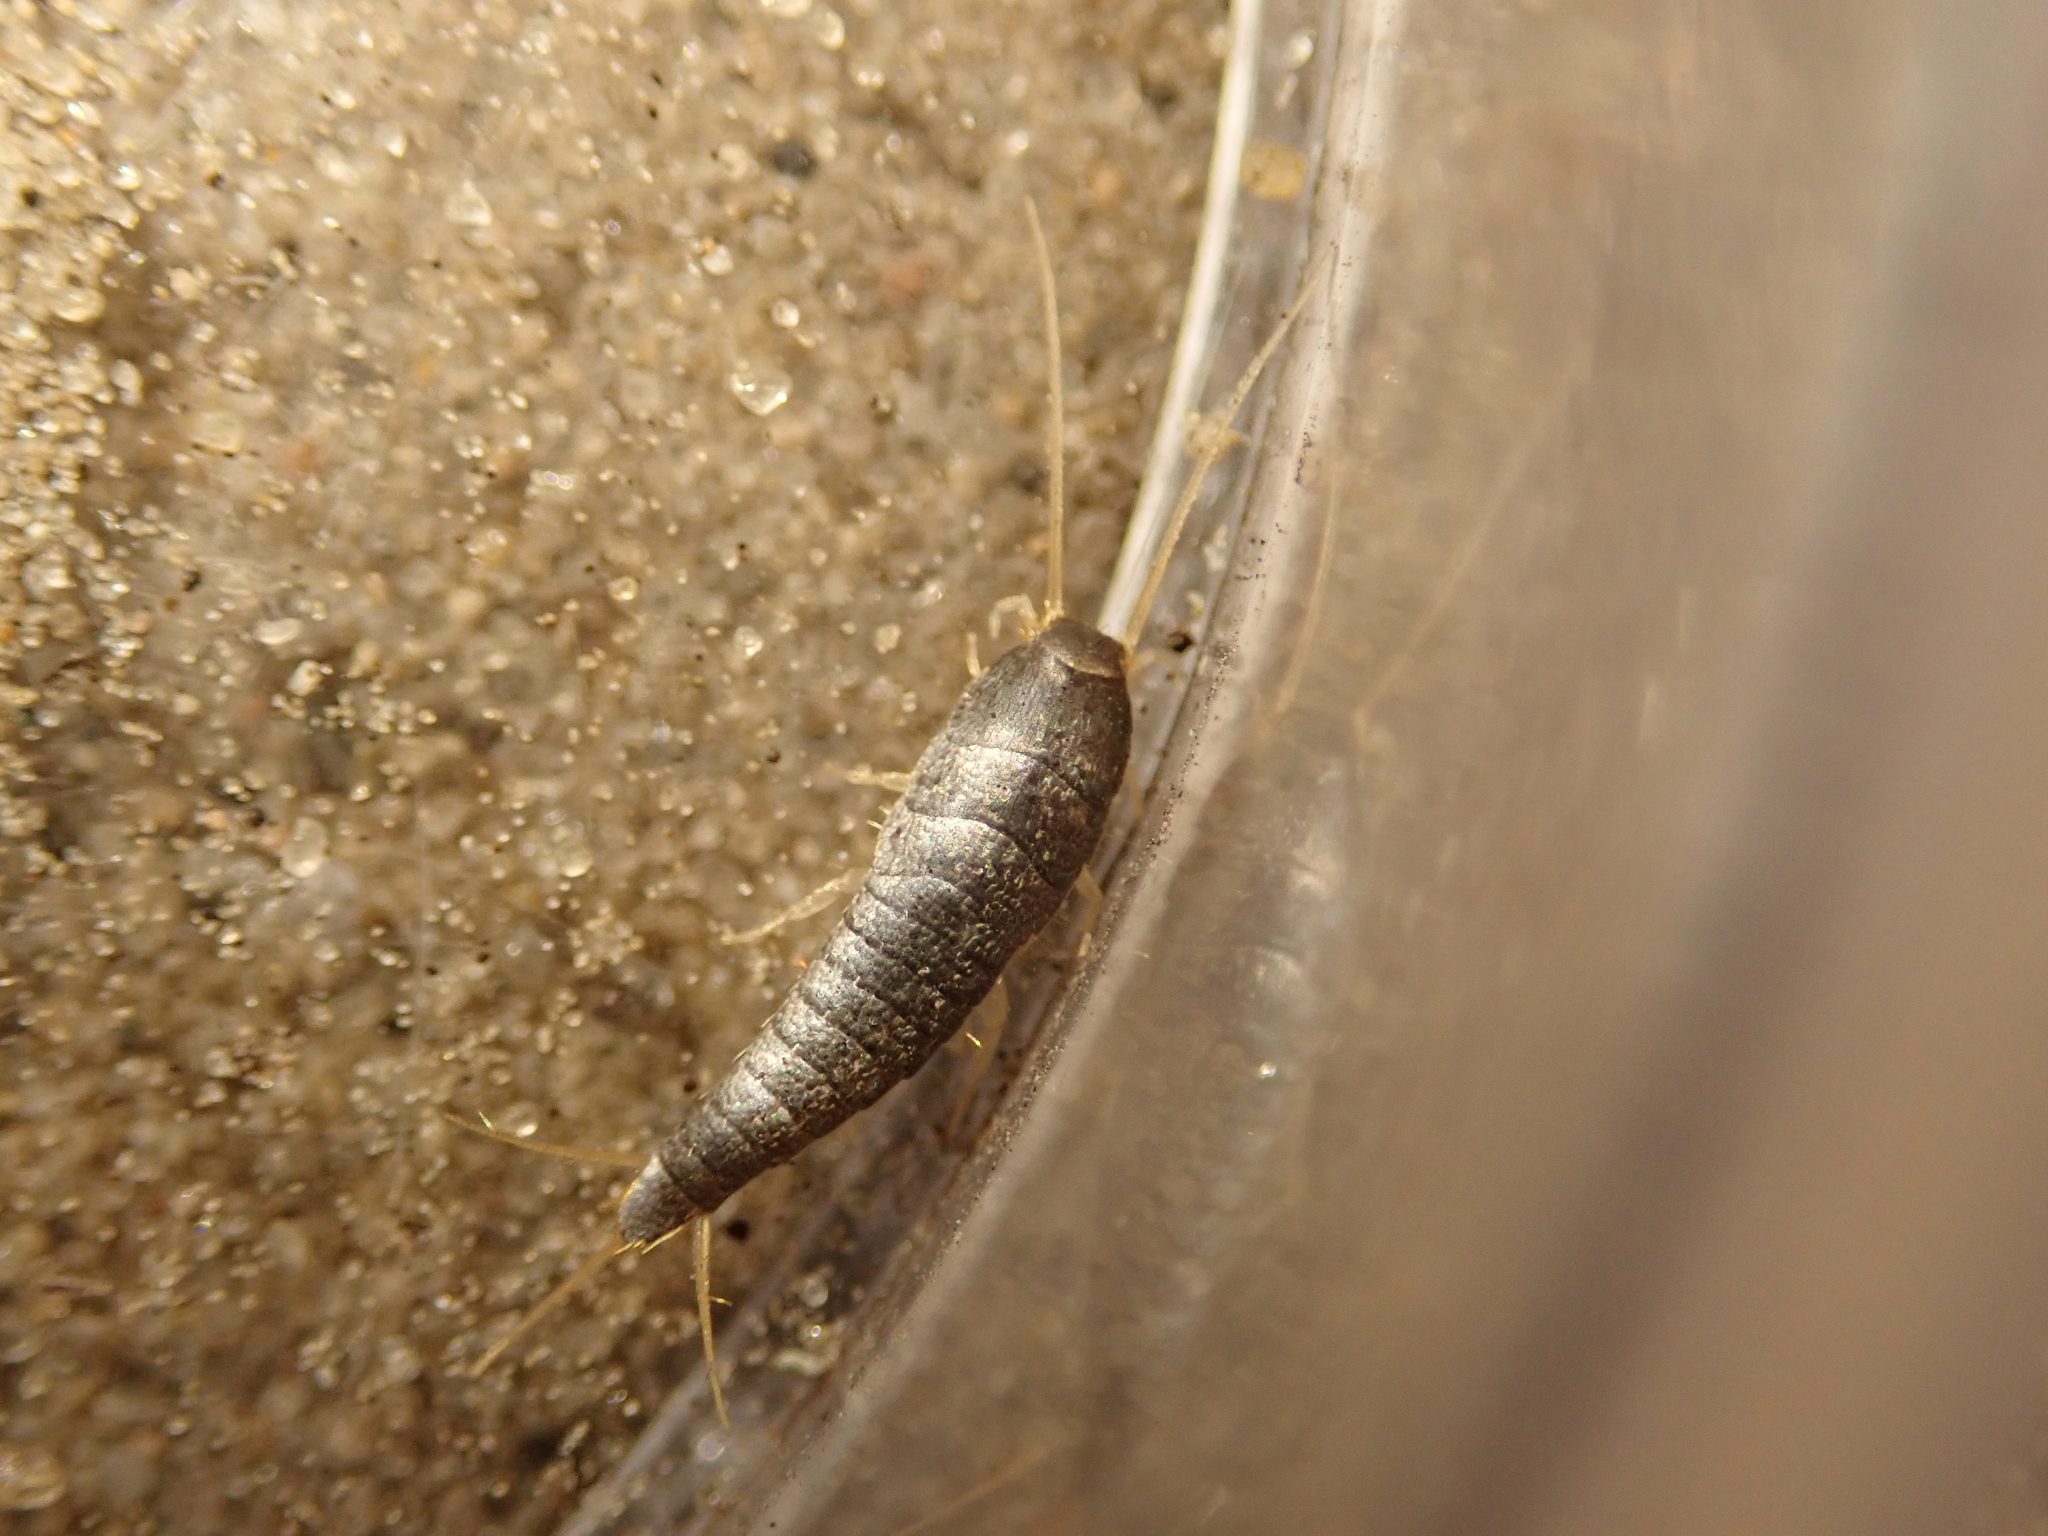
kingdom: Animalia
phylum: Arthropoda
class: Insecta
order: Zygentoma
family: Lepismatidae
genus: Lepisma
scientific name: Lepisma saccharinum
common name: Silverfish
